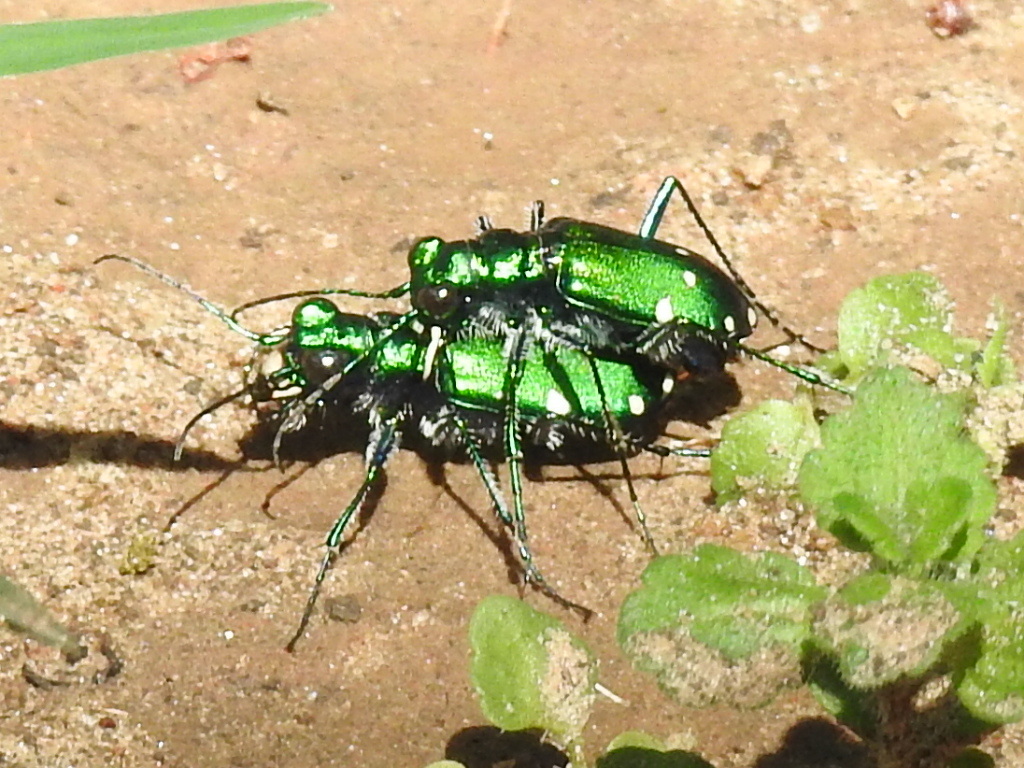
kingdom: Animalia
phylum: Arthropoda
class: Insecta
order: Coleoptera
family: Carabidae
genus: Cicindela
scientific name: Cicindela sexguttata
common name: Six-spotted tiger beetle
